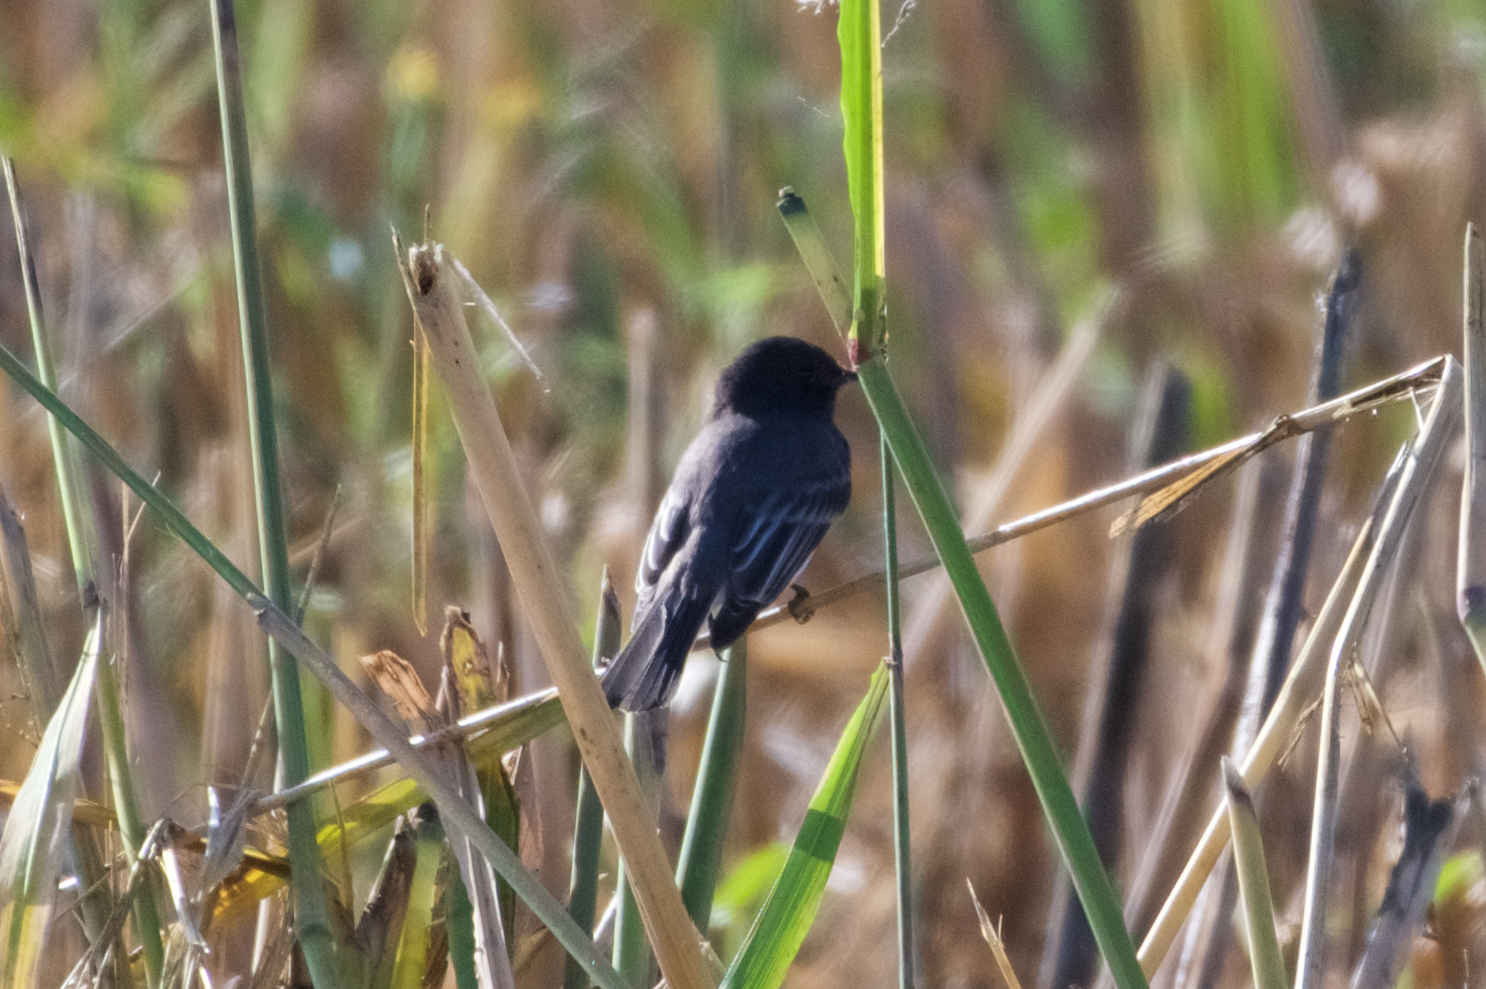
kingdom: Animalia
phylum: Chordata
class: Aves
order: Passeriformes
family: Tyrannidae
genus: Sayornis
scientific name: Sayornis nigricans
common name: Black phoebe
